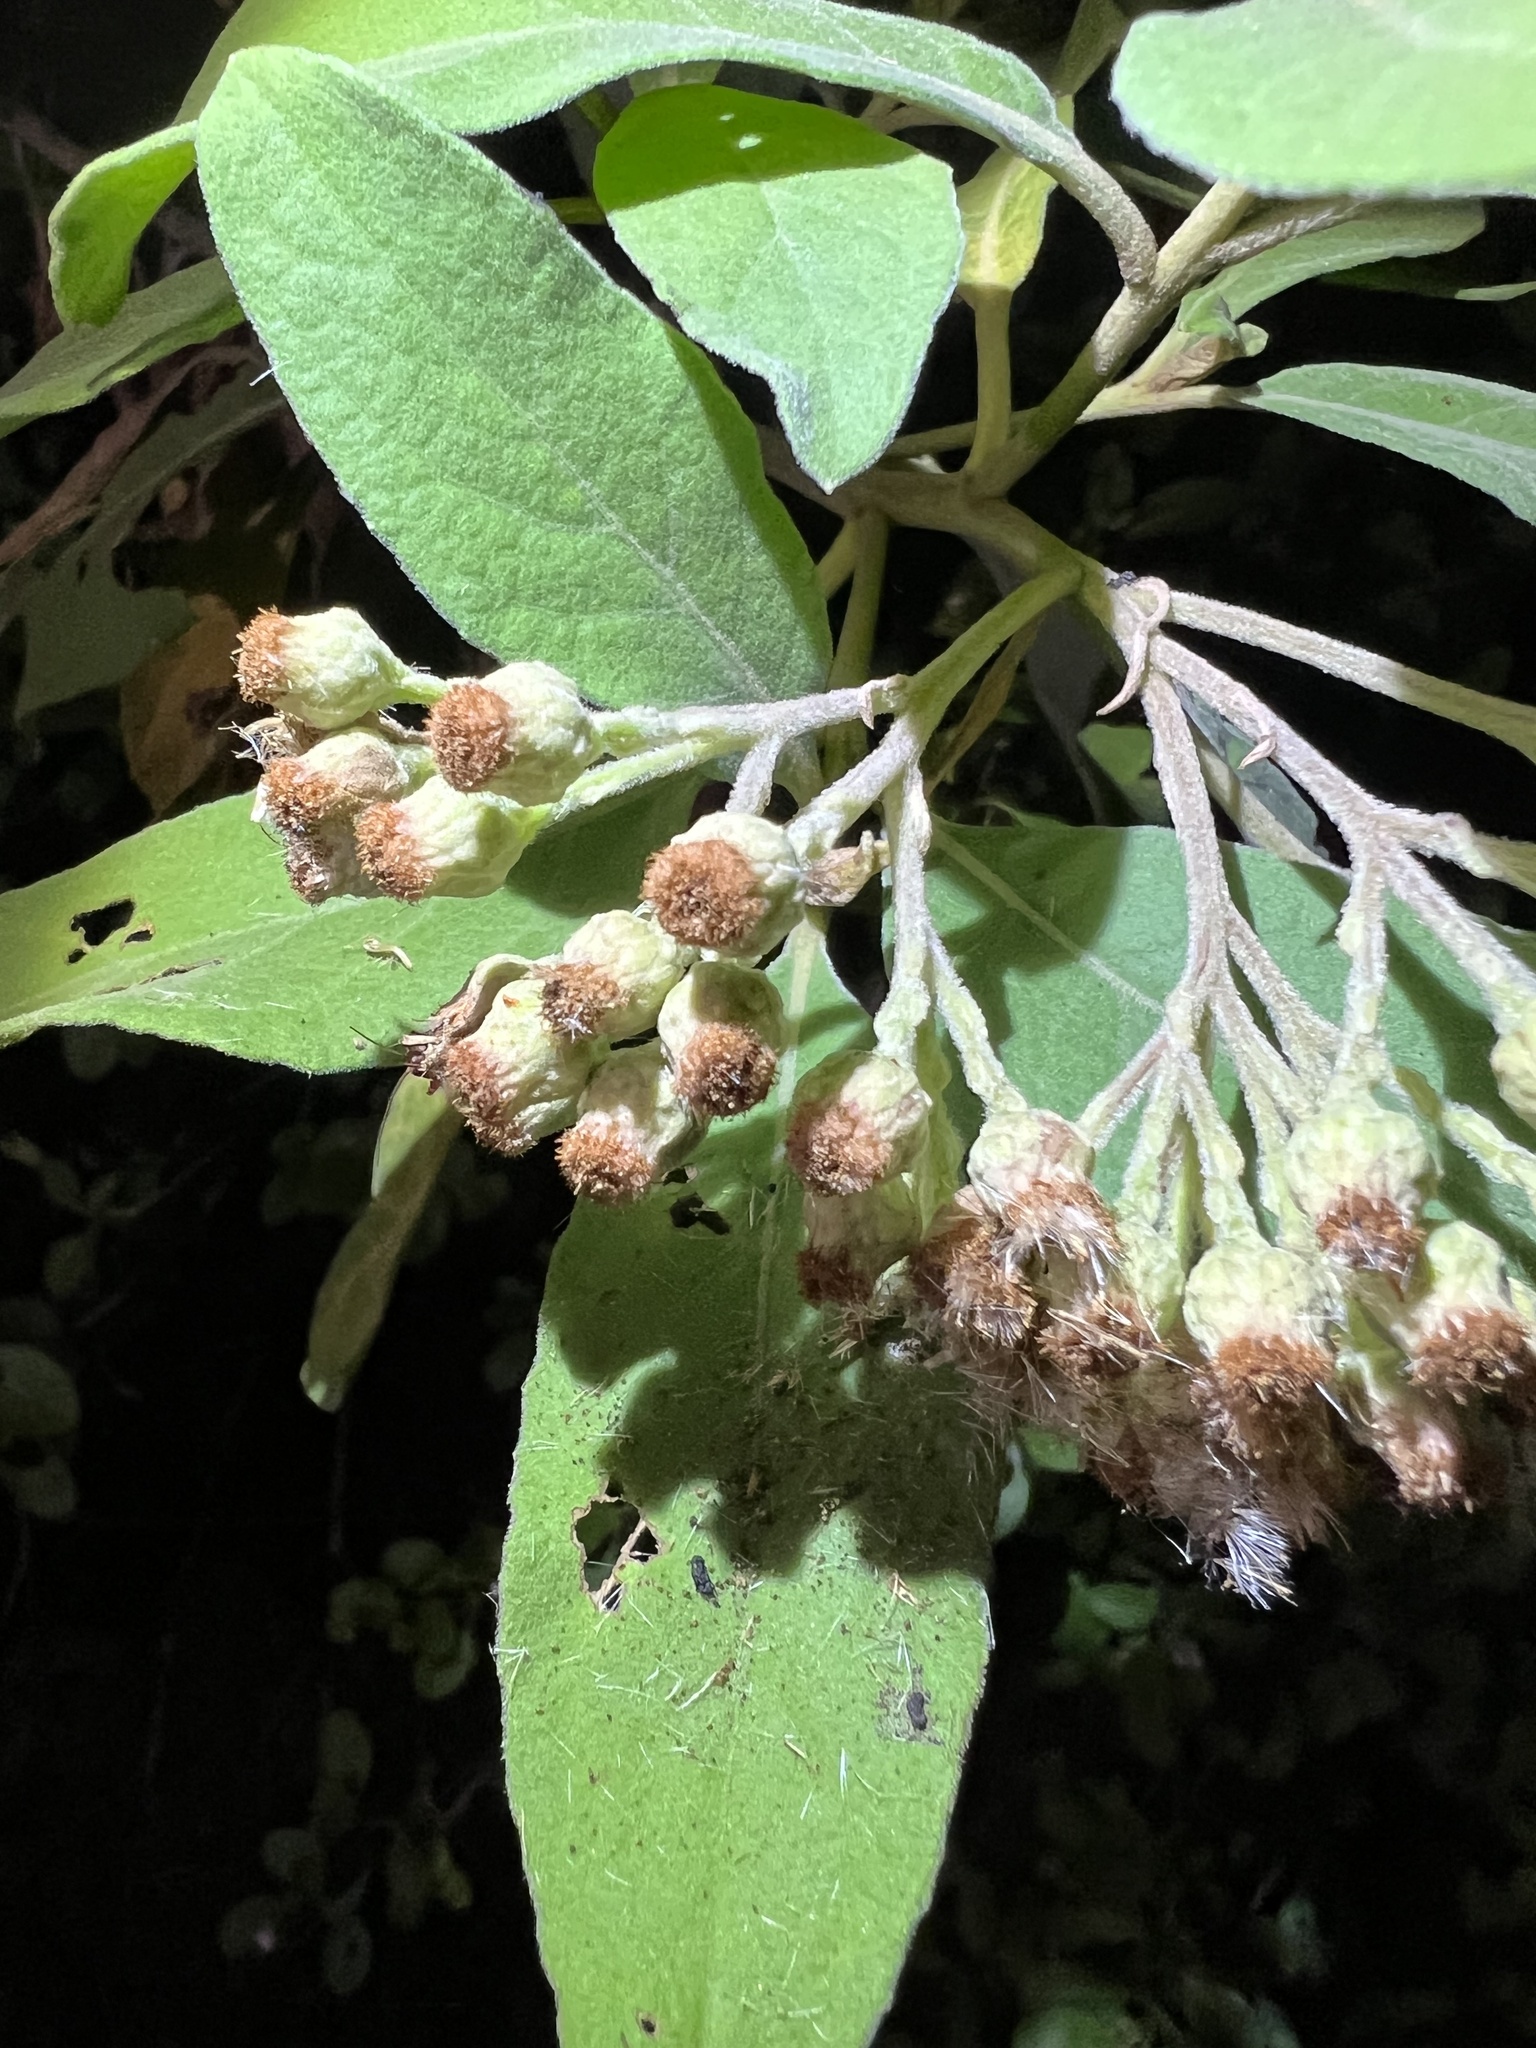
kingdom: Plantae
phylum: Tracheophyta
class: Magnoliopsida
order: Asterales
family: Asteraceae
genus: Pluchea
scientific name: Pluchea carolinensis
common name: Marsh fleabane
